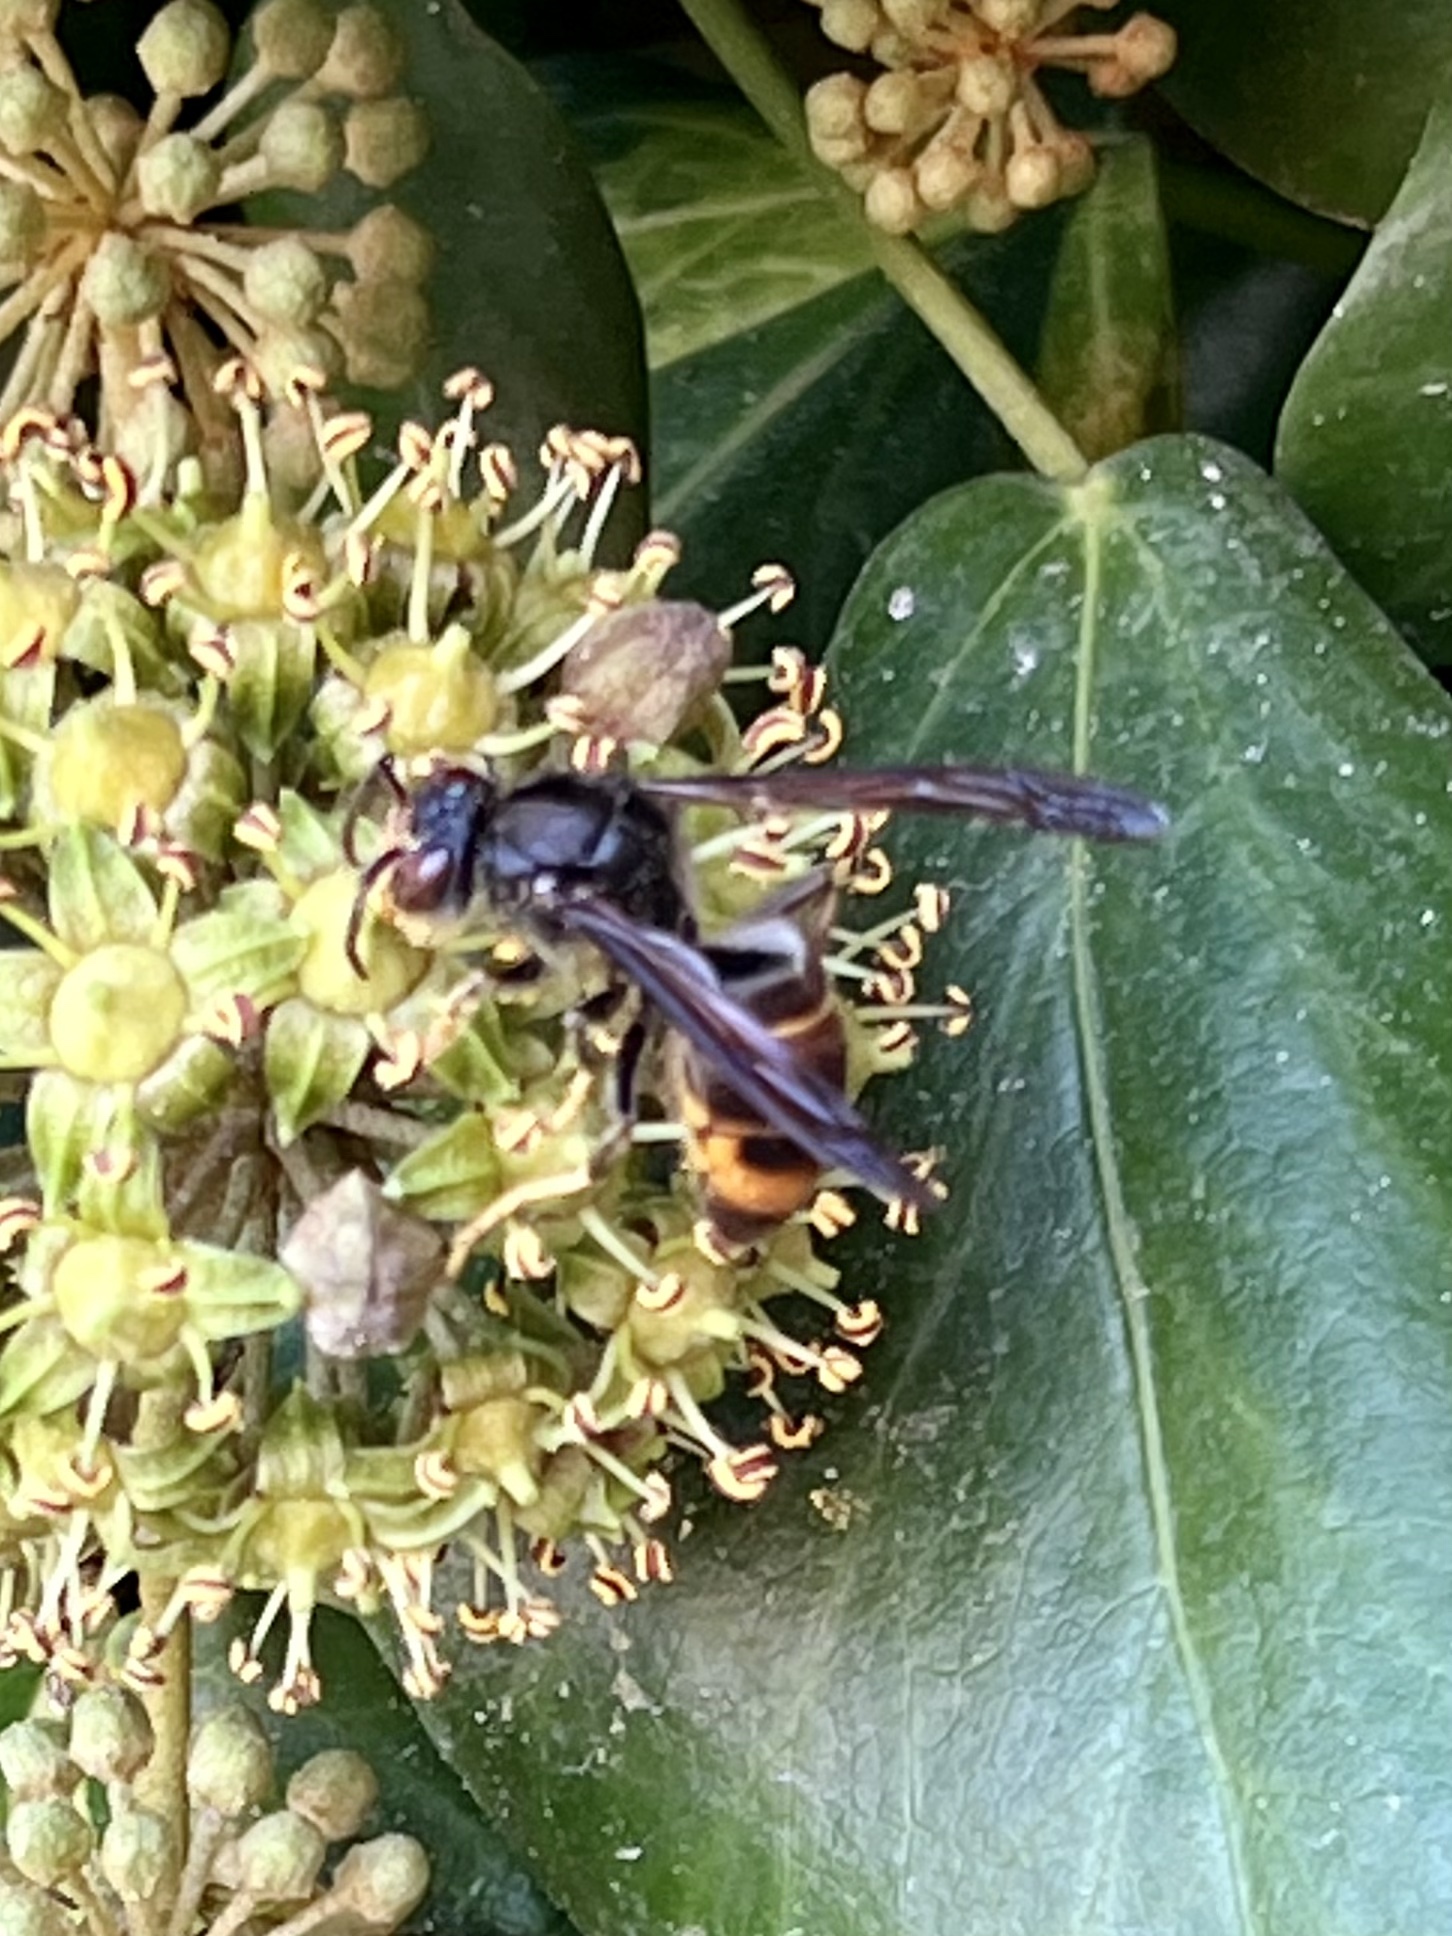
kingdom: Animalia
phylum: Arthropoda
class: Insecta
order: Hymenoptera
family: Vespidae
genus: Vespa
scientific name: Vespa velutina
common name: Asian hornet
